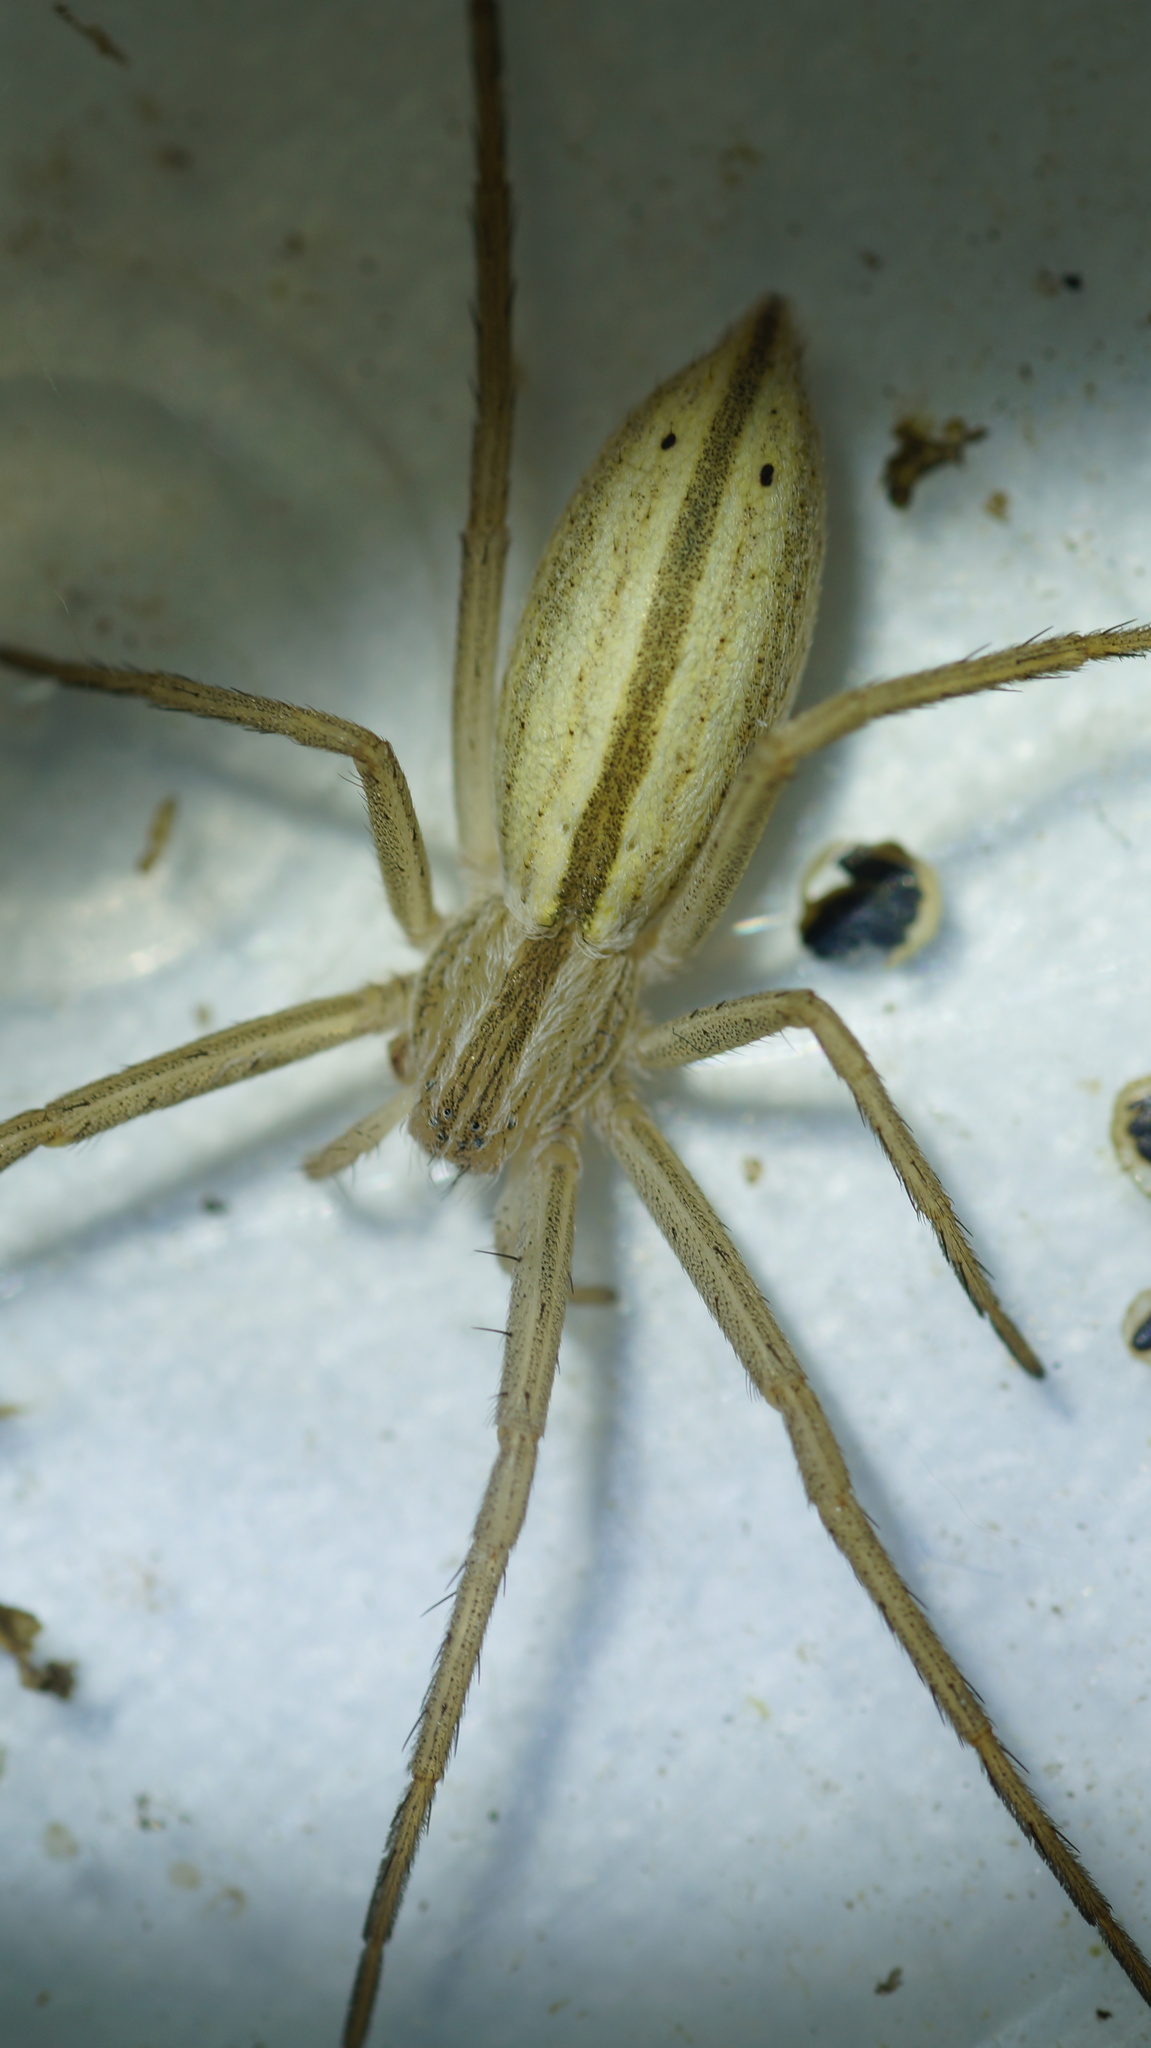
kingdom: Animalia
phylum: Arthropoda
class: Arachnida
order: Araneae
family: Philodromidae
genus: Tibellus
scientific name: Tibellus oblongus
